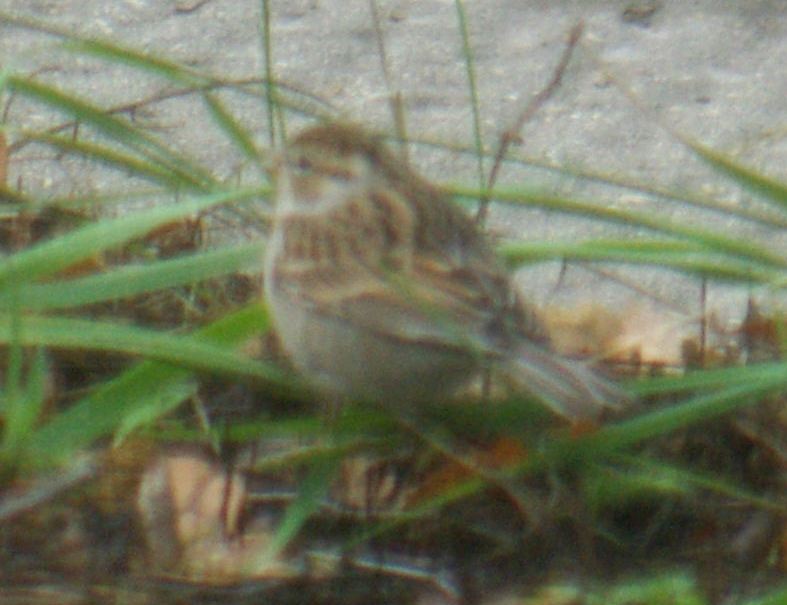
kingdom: Animalia
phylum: Chordata
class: Aves
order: Passeriformes
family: Passerellidae
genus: Spizella
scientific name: Spizella passerina
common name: Chipping sparrow
